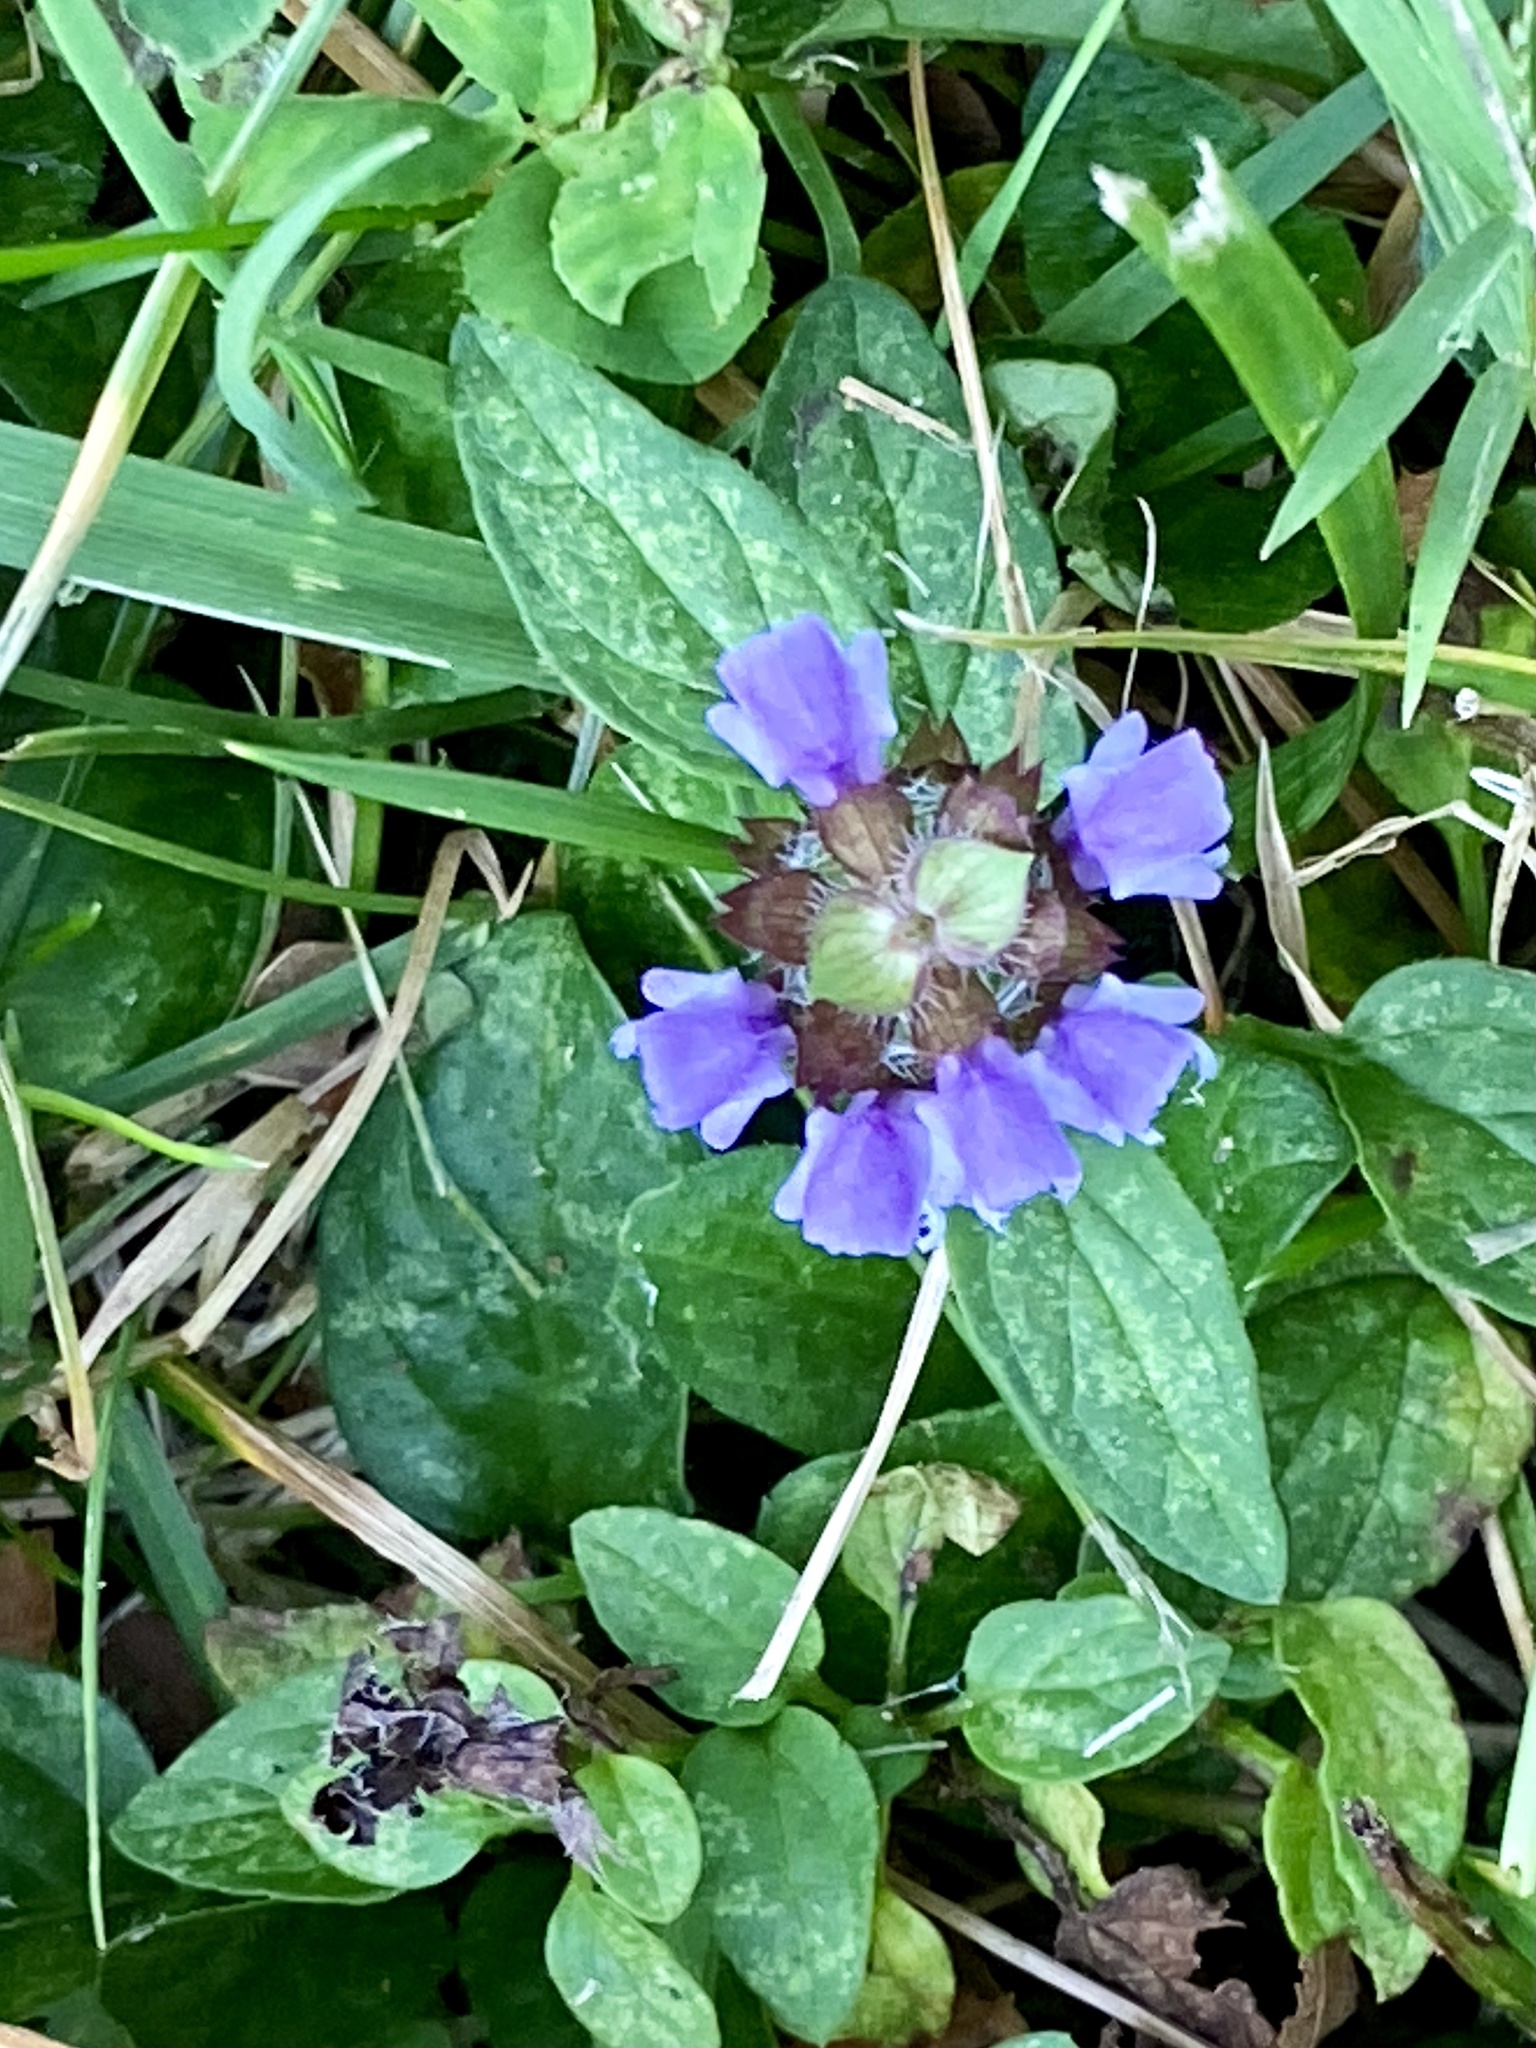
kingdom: Plantae
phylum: Tracheophyta
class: Magnoliopsida
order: Lamiales
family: Lamiaceae
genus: Prunella
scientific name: Prunella vulgaris
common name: Heal-all
